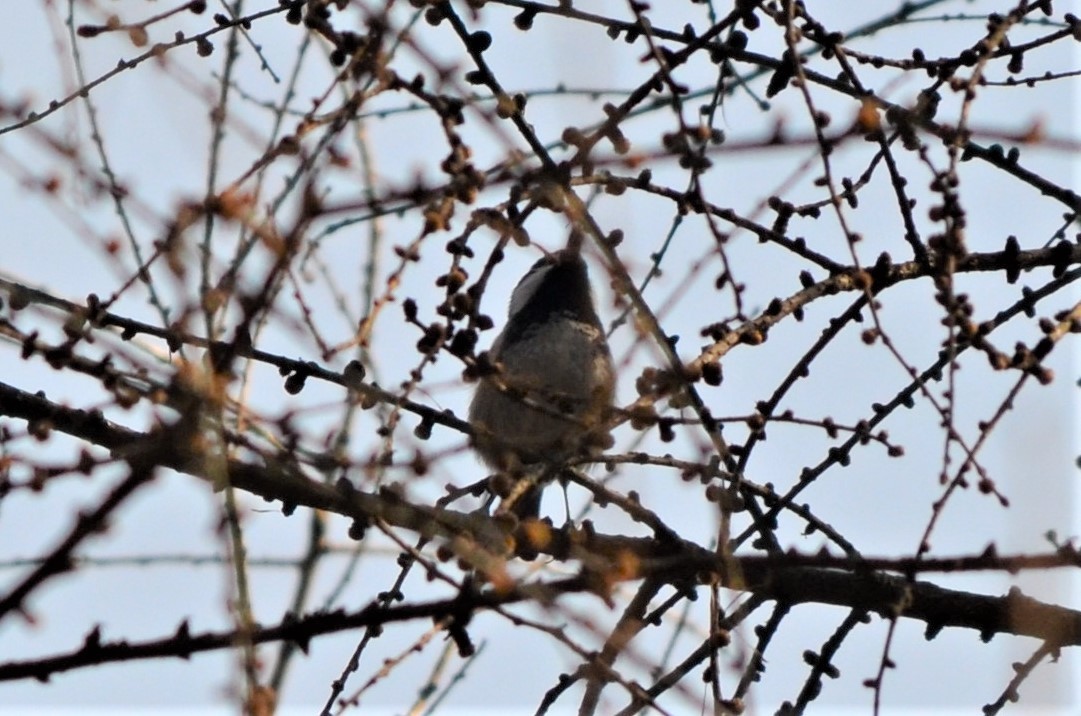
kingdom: Animalia
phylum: Chordata
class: Aves
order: Passeriformes
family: Paridae
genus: Periparus
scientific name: Periparus ater
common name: Coal tit
